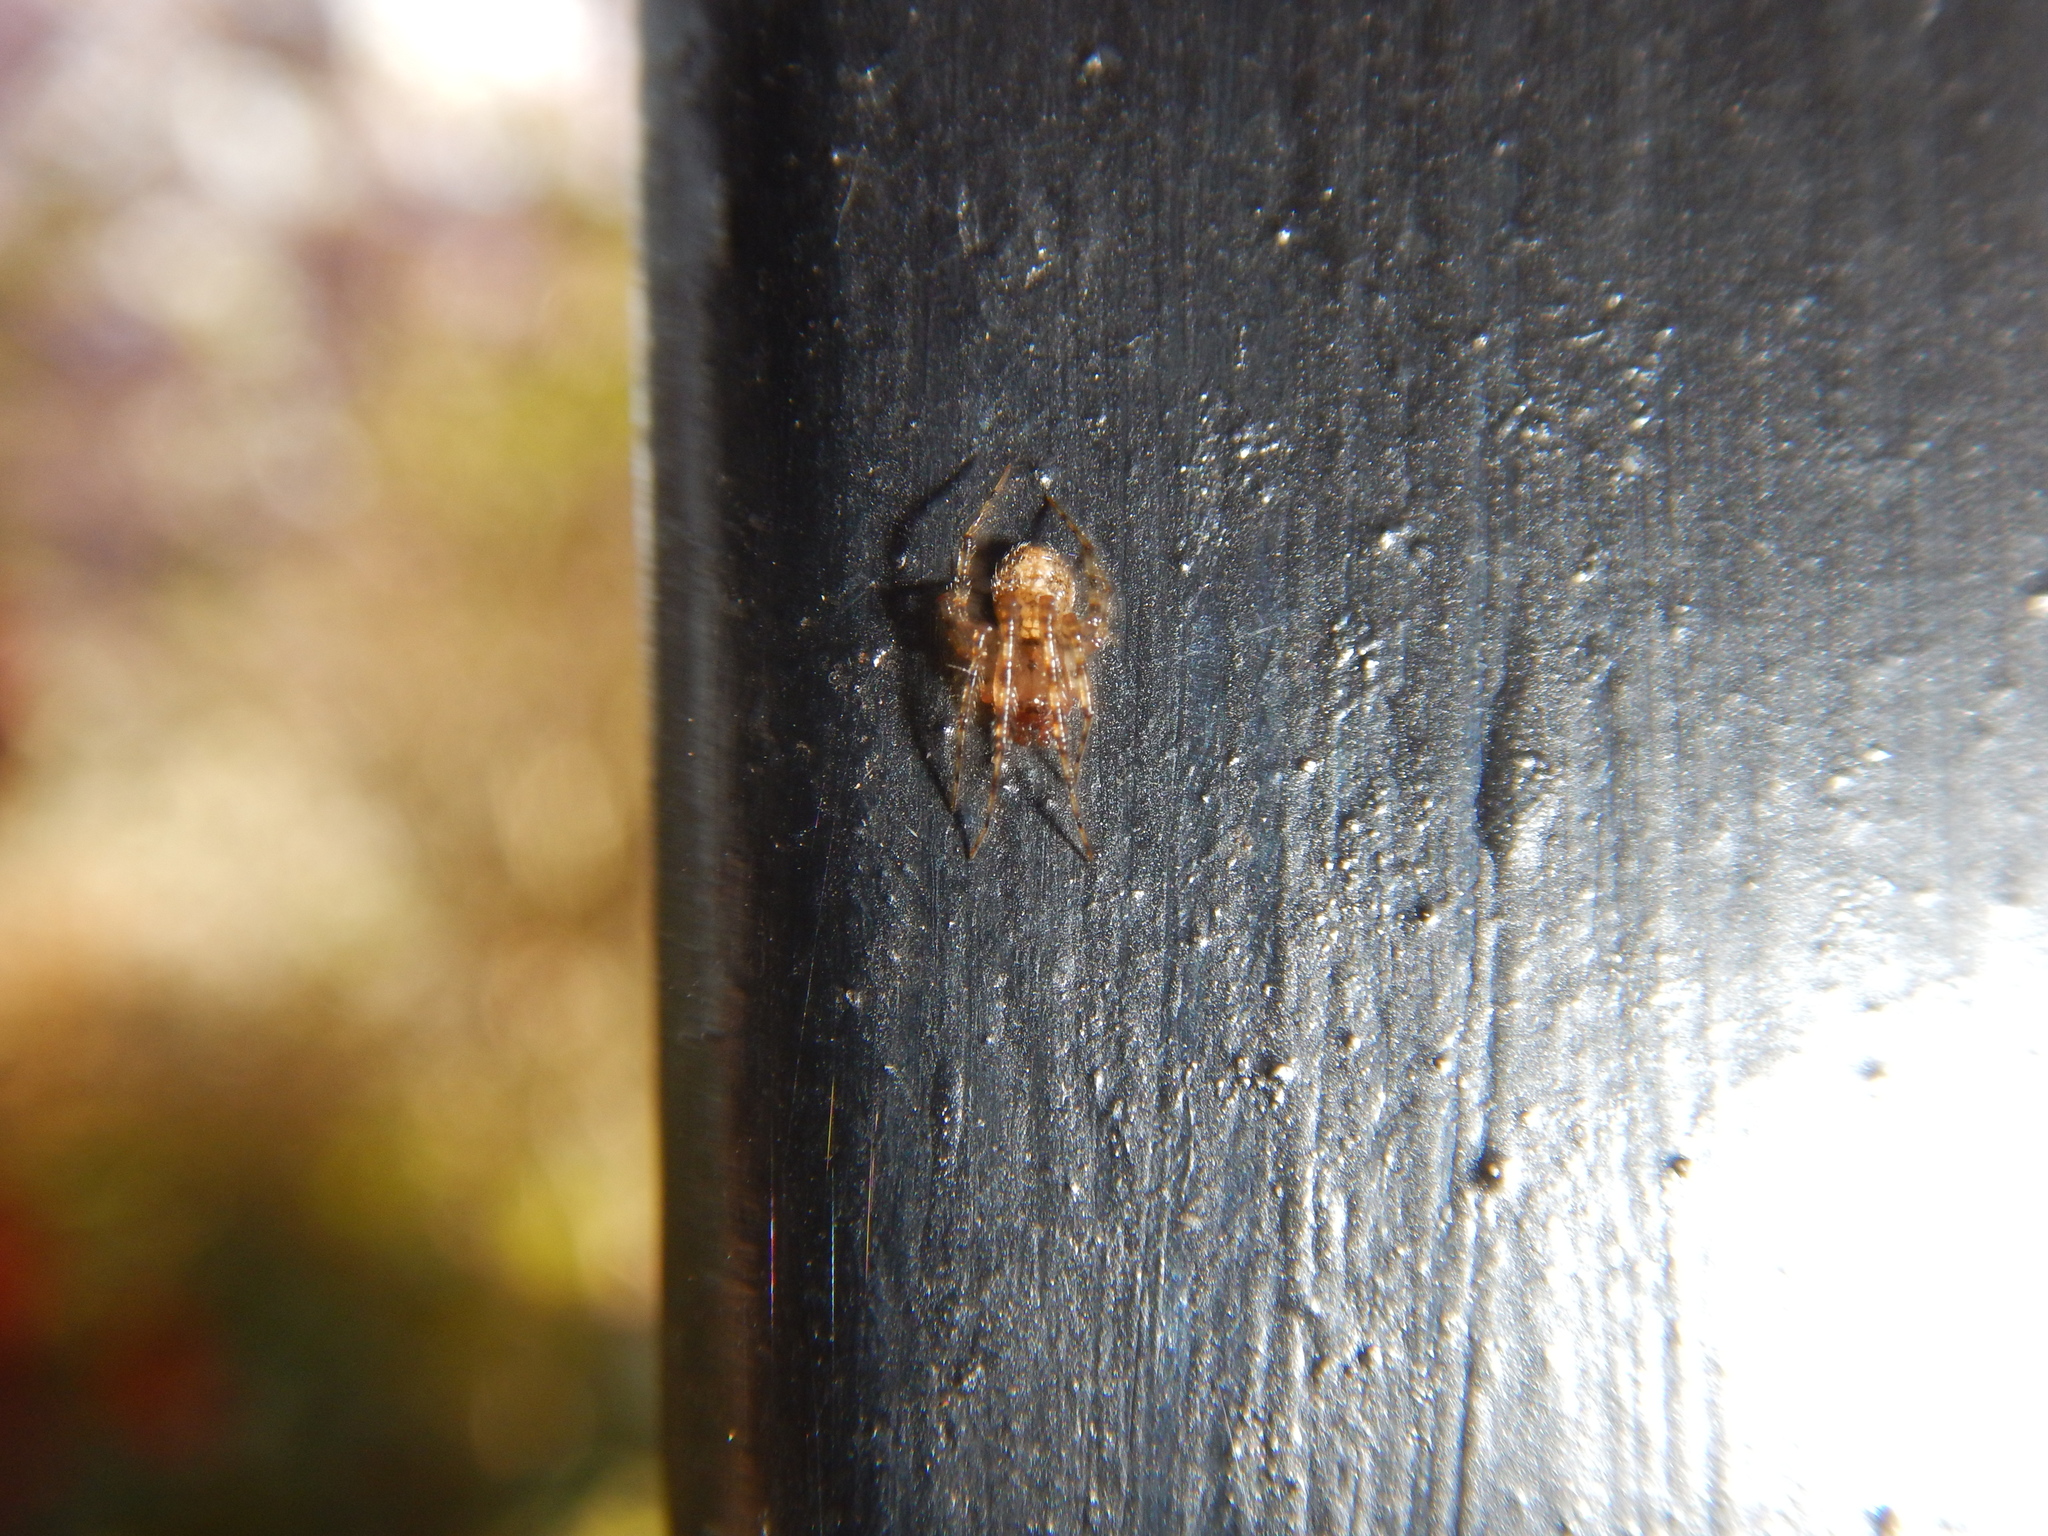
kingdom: Animalia
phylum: Arthropoda
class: Arachnida
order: Araneae
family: Theridiidae
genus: Theridion
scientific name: Theridion adrianopoli
